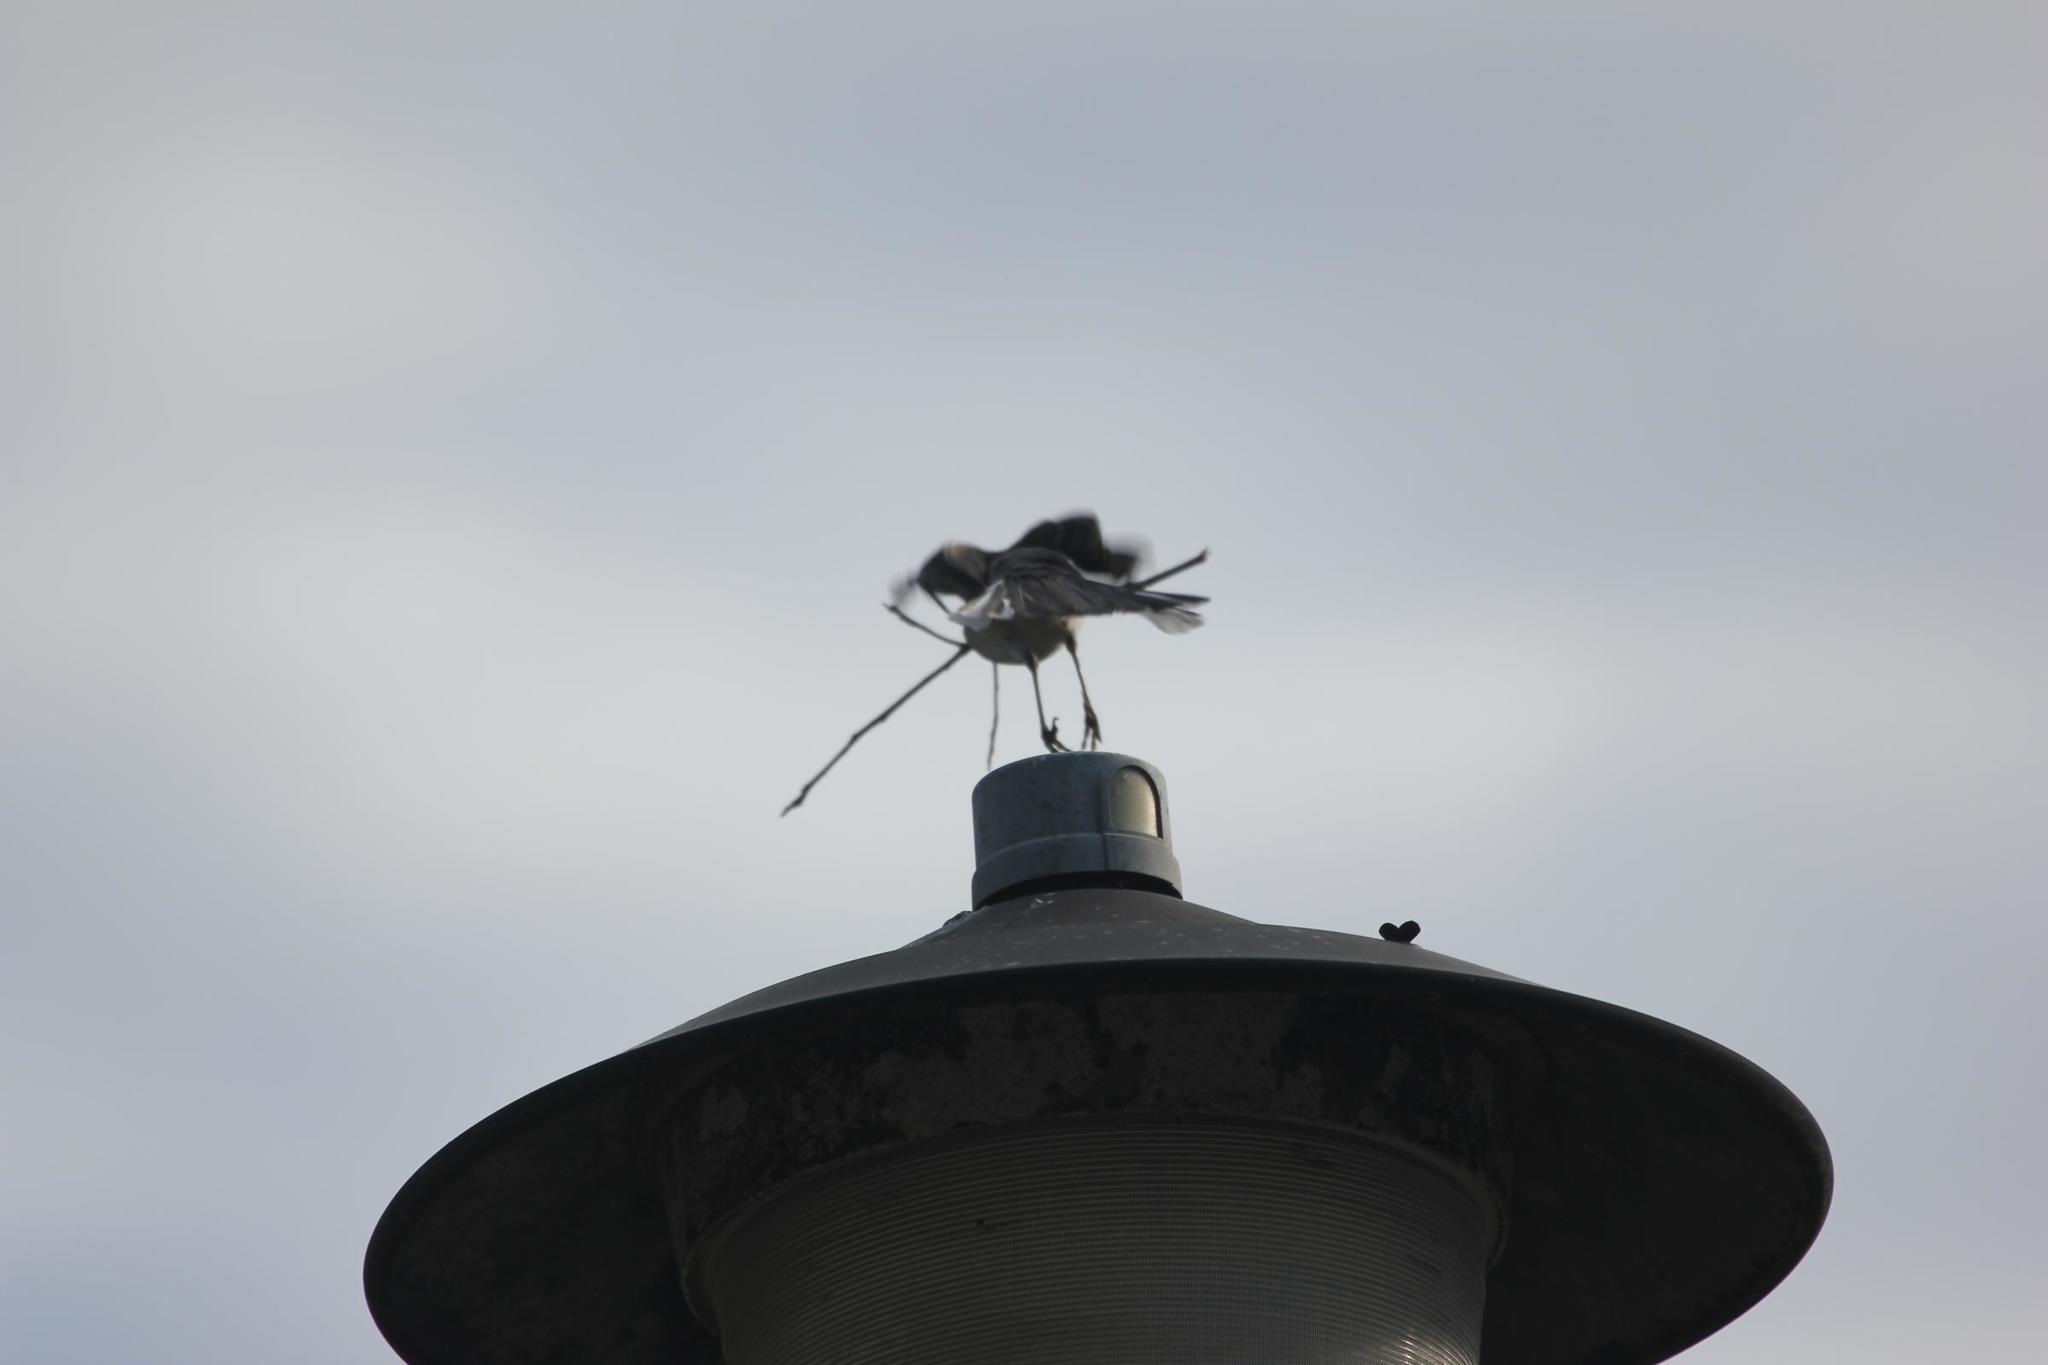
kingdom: Animalia
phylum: Chordata
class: Aves
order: Passeriformes
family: Mimidae
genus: Mimus
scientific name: Mimus polyglottos
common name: Northern mockingbird
